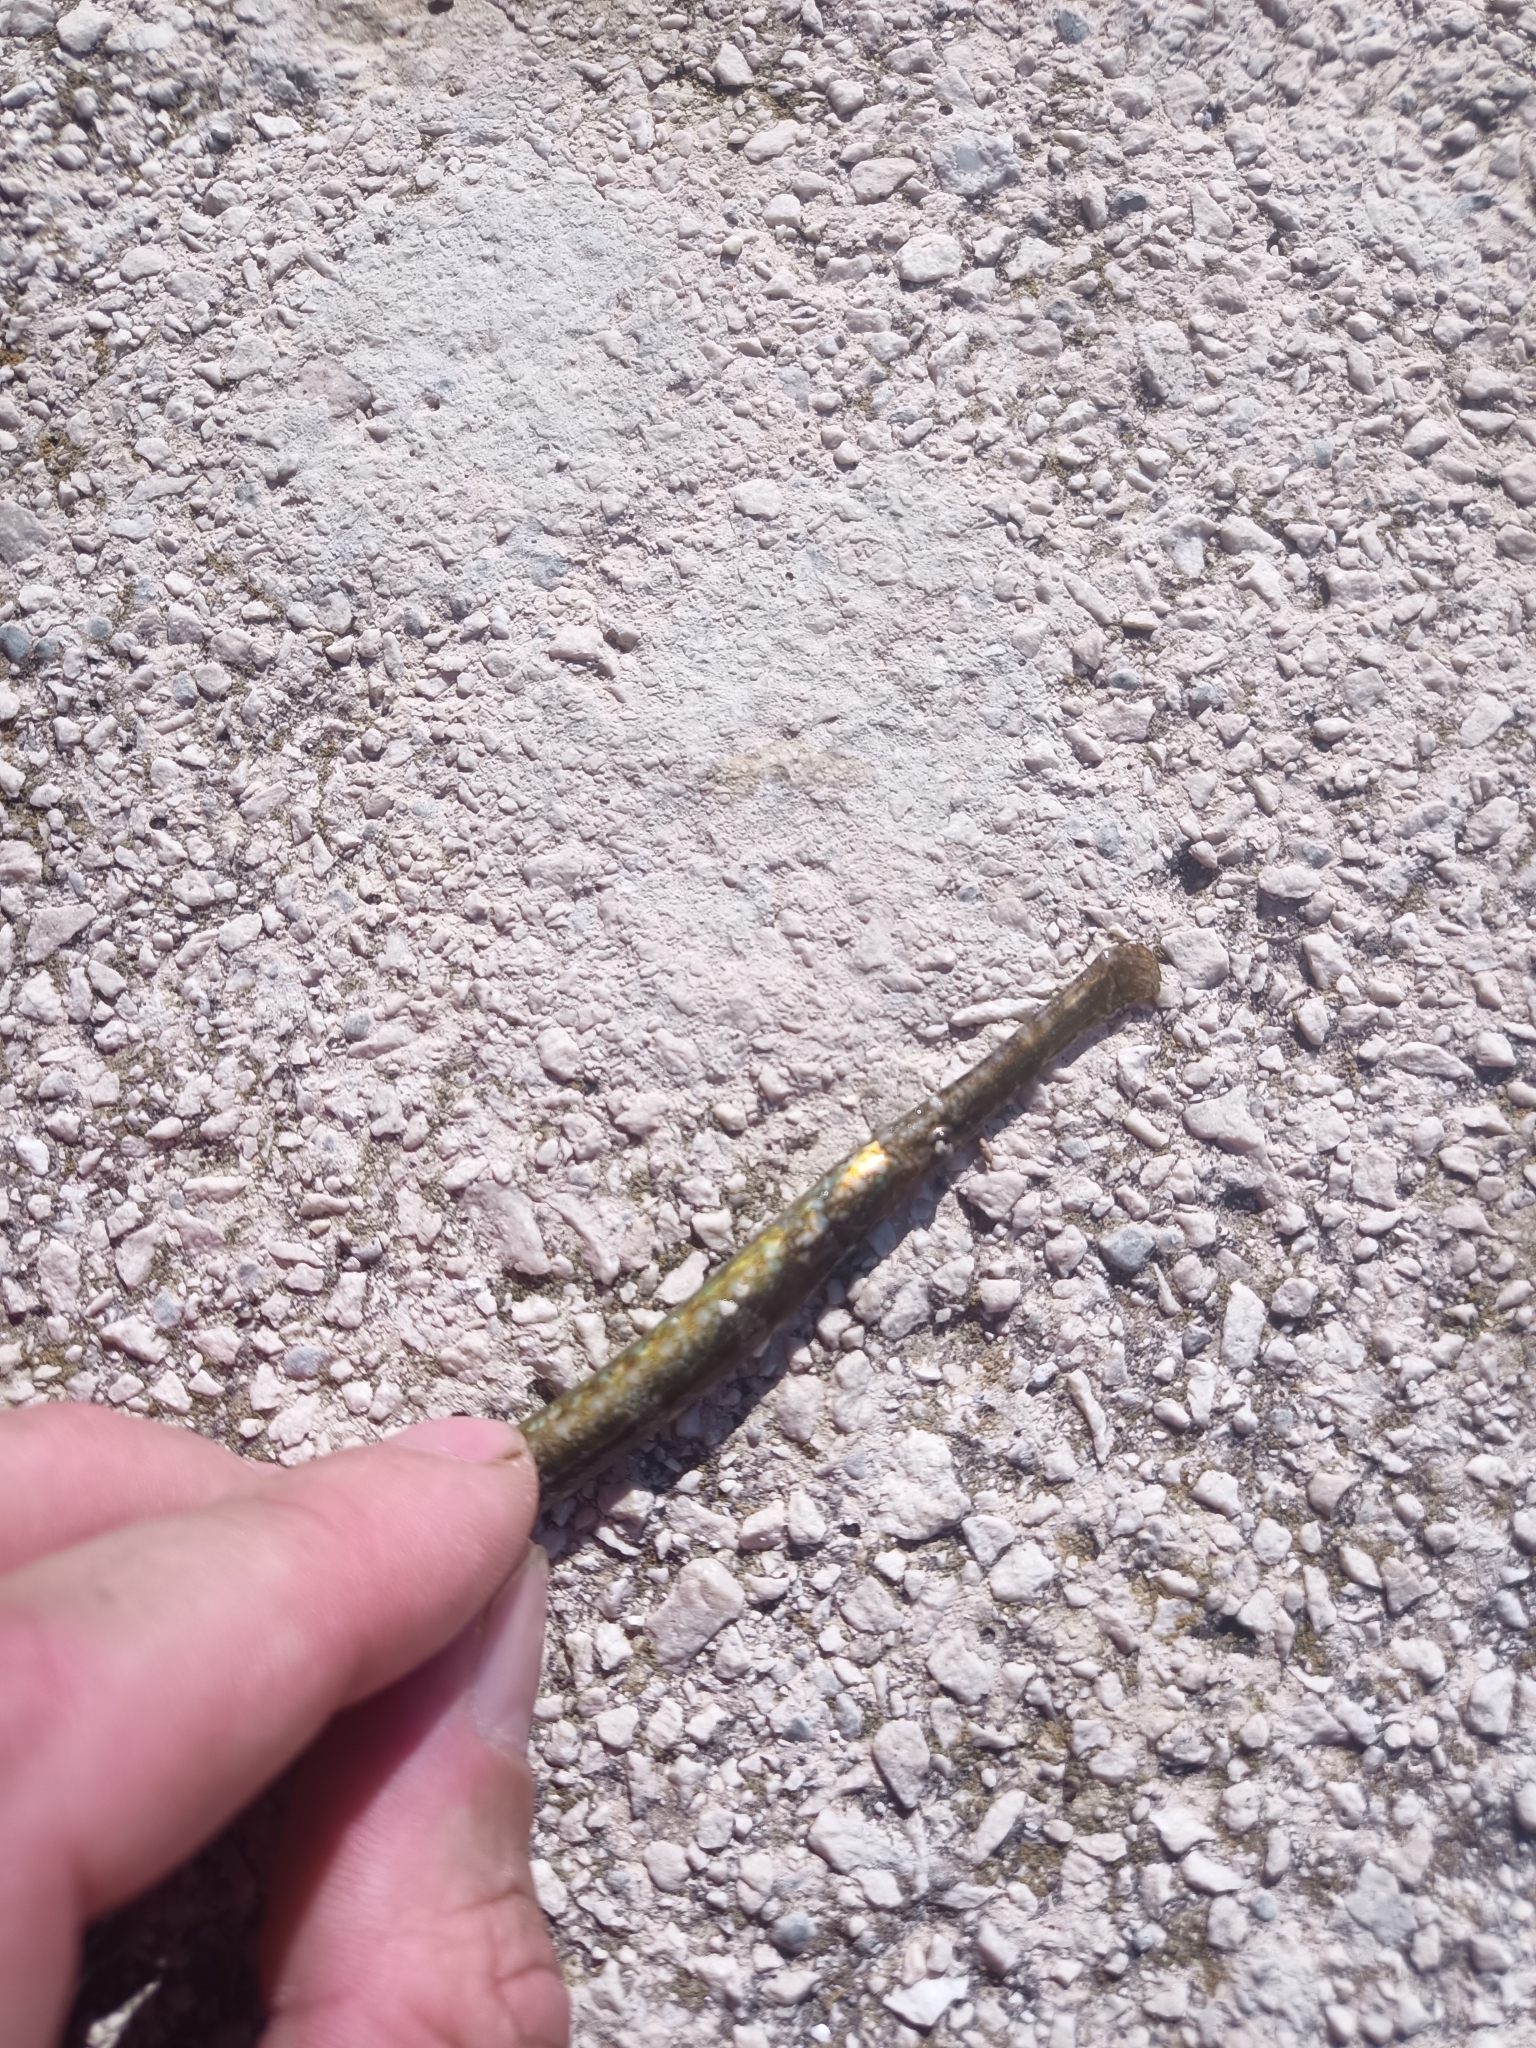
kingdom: Animalia
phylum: Chordata
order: Syngnathiformes
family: Syngnathidae
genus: Syngnathus
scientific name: Syngnathus typhle
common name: Deep-snouted pipefish
